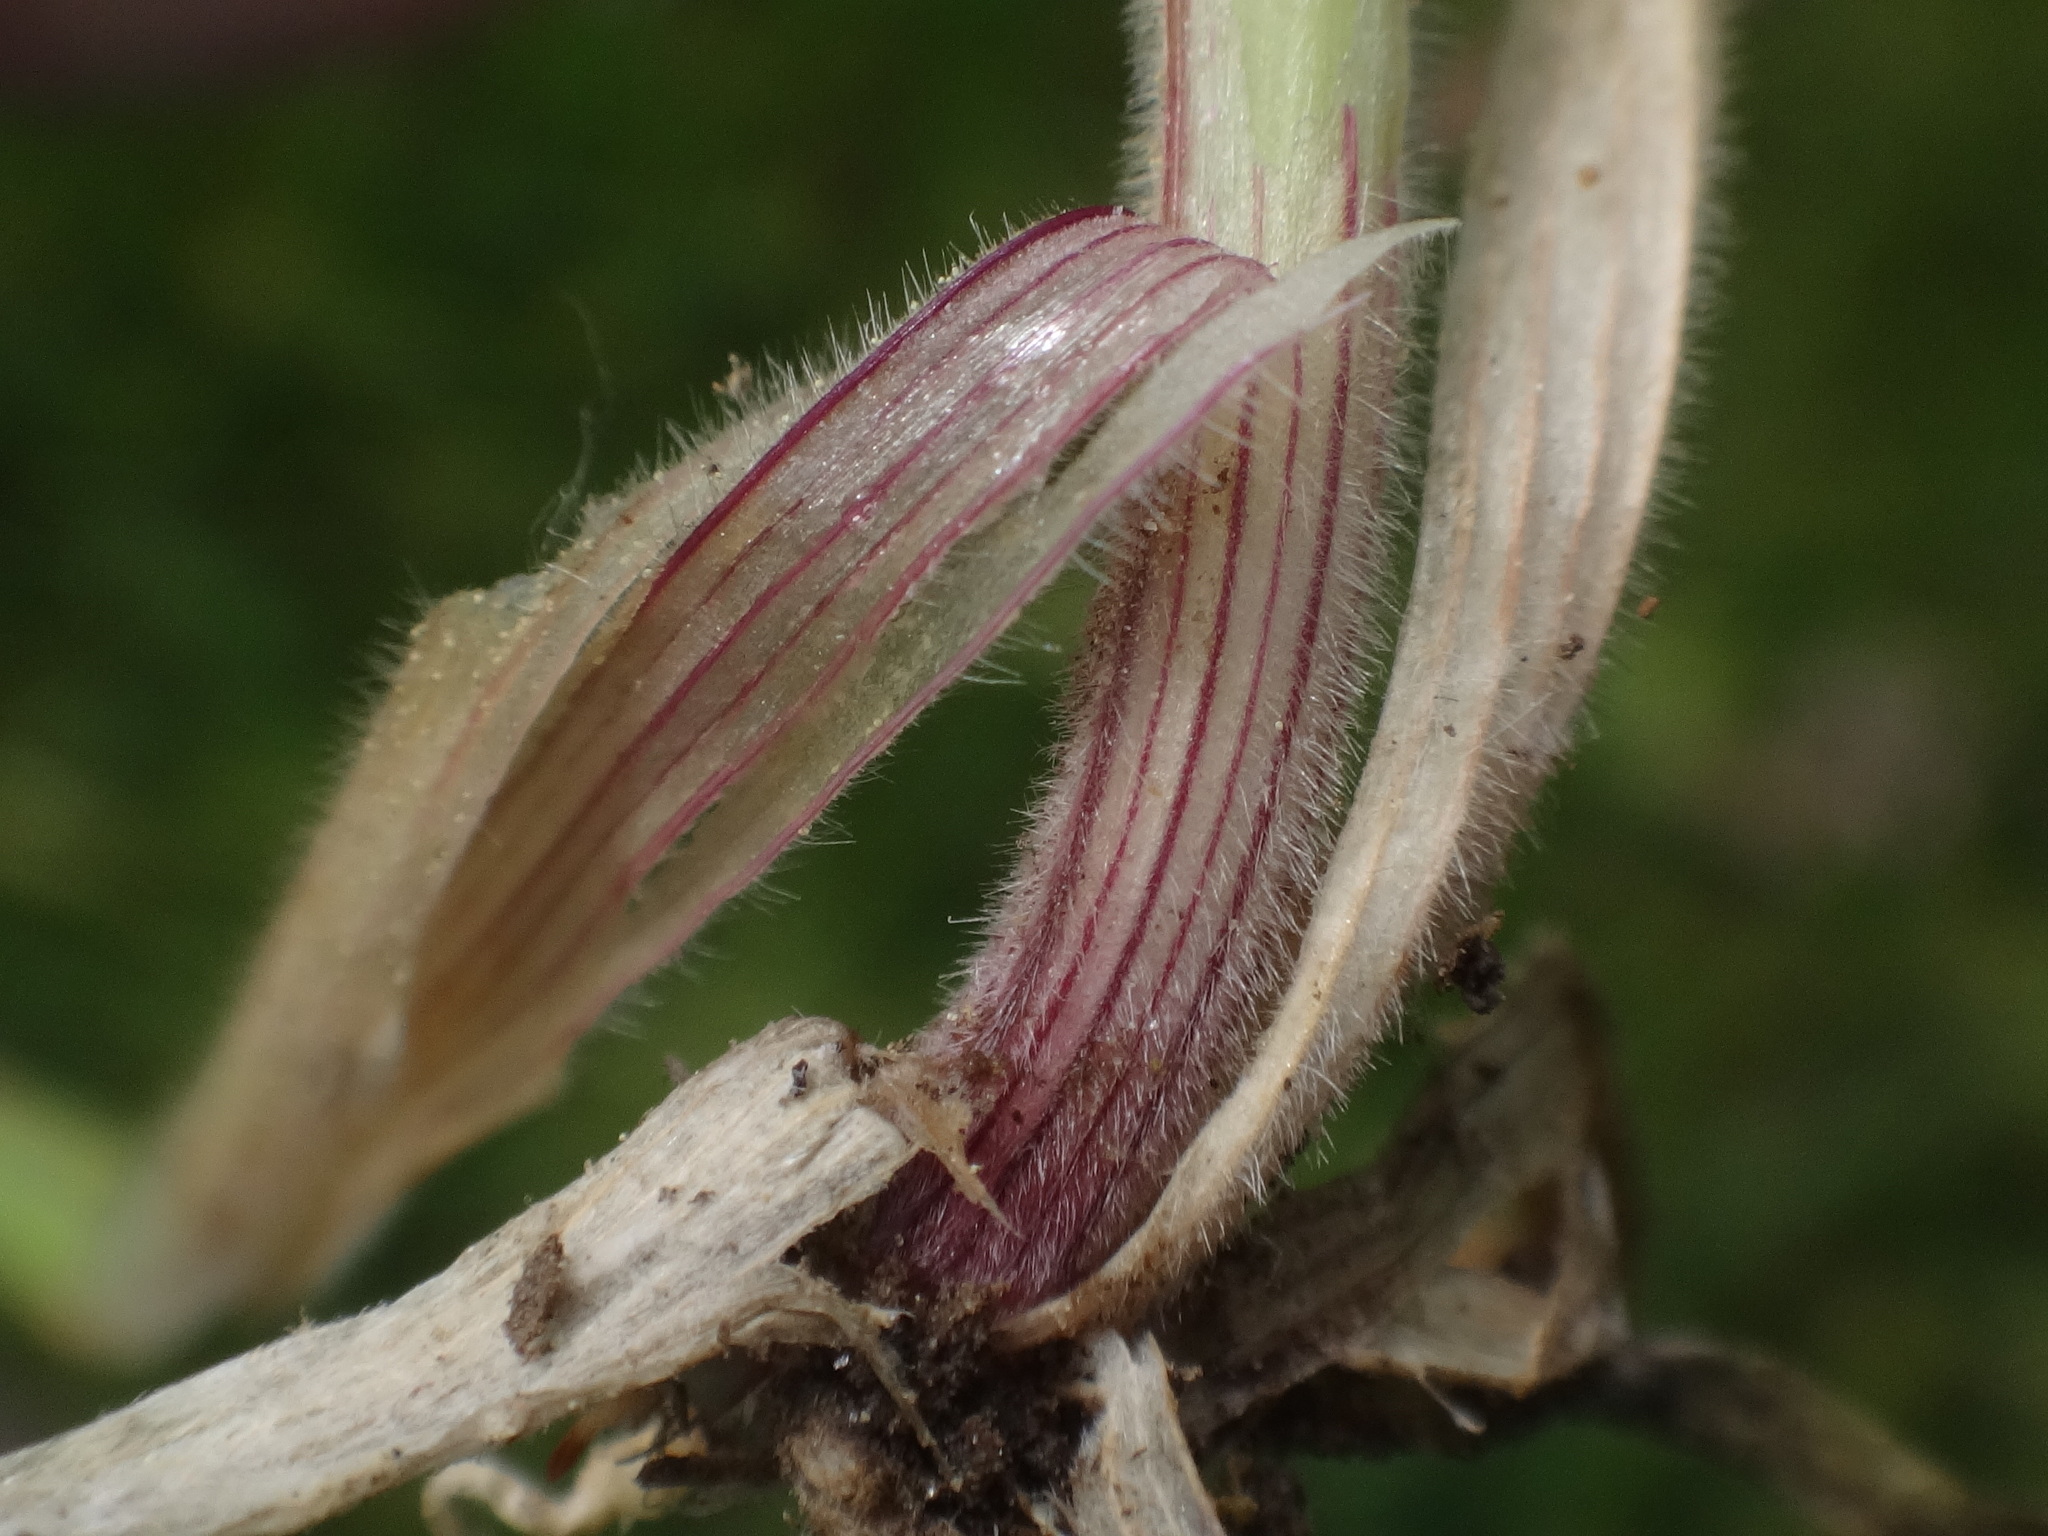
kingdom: Plantae
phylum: Tracheophyta
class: Liliopsida
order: Poales
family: Poaceae
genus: Holcus
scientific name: Holcus lanatus
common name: Yorkshire-fog
